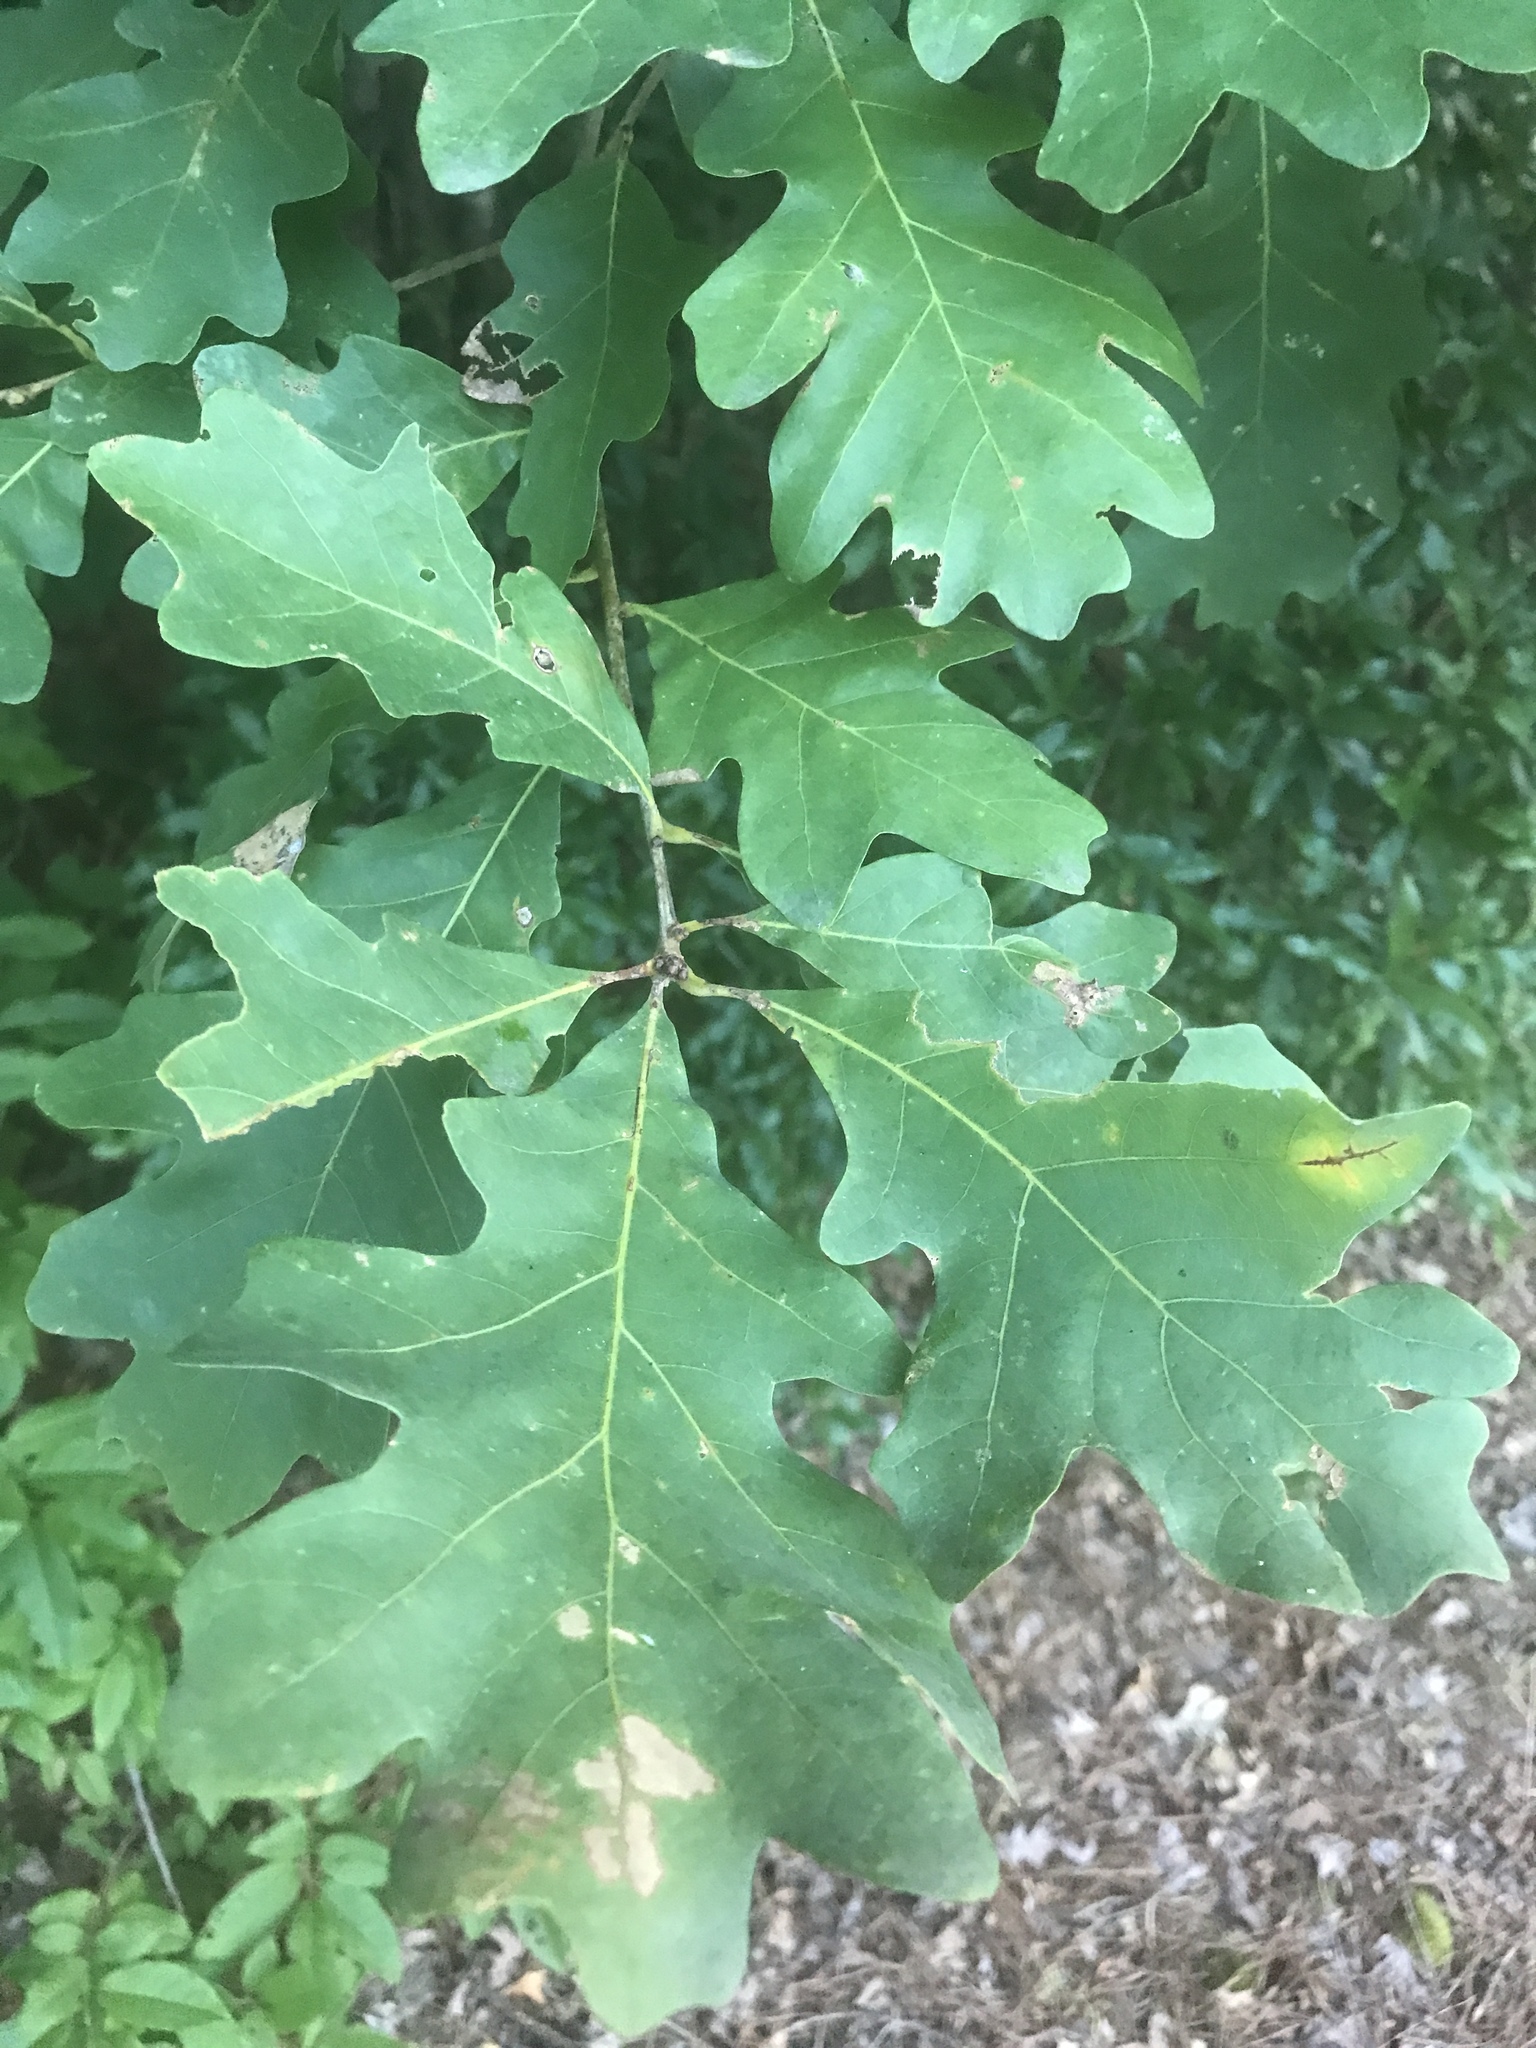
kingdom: Plantae
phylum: Tracheophyta
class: Magnoliopsida
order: Fagales
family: Fagaceae
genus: Quercus
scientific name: Quercus alba
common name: White oak
